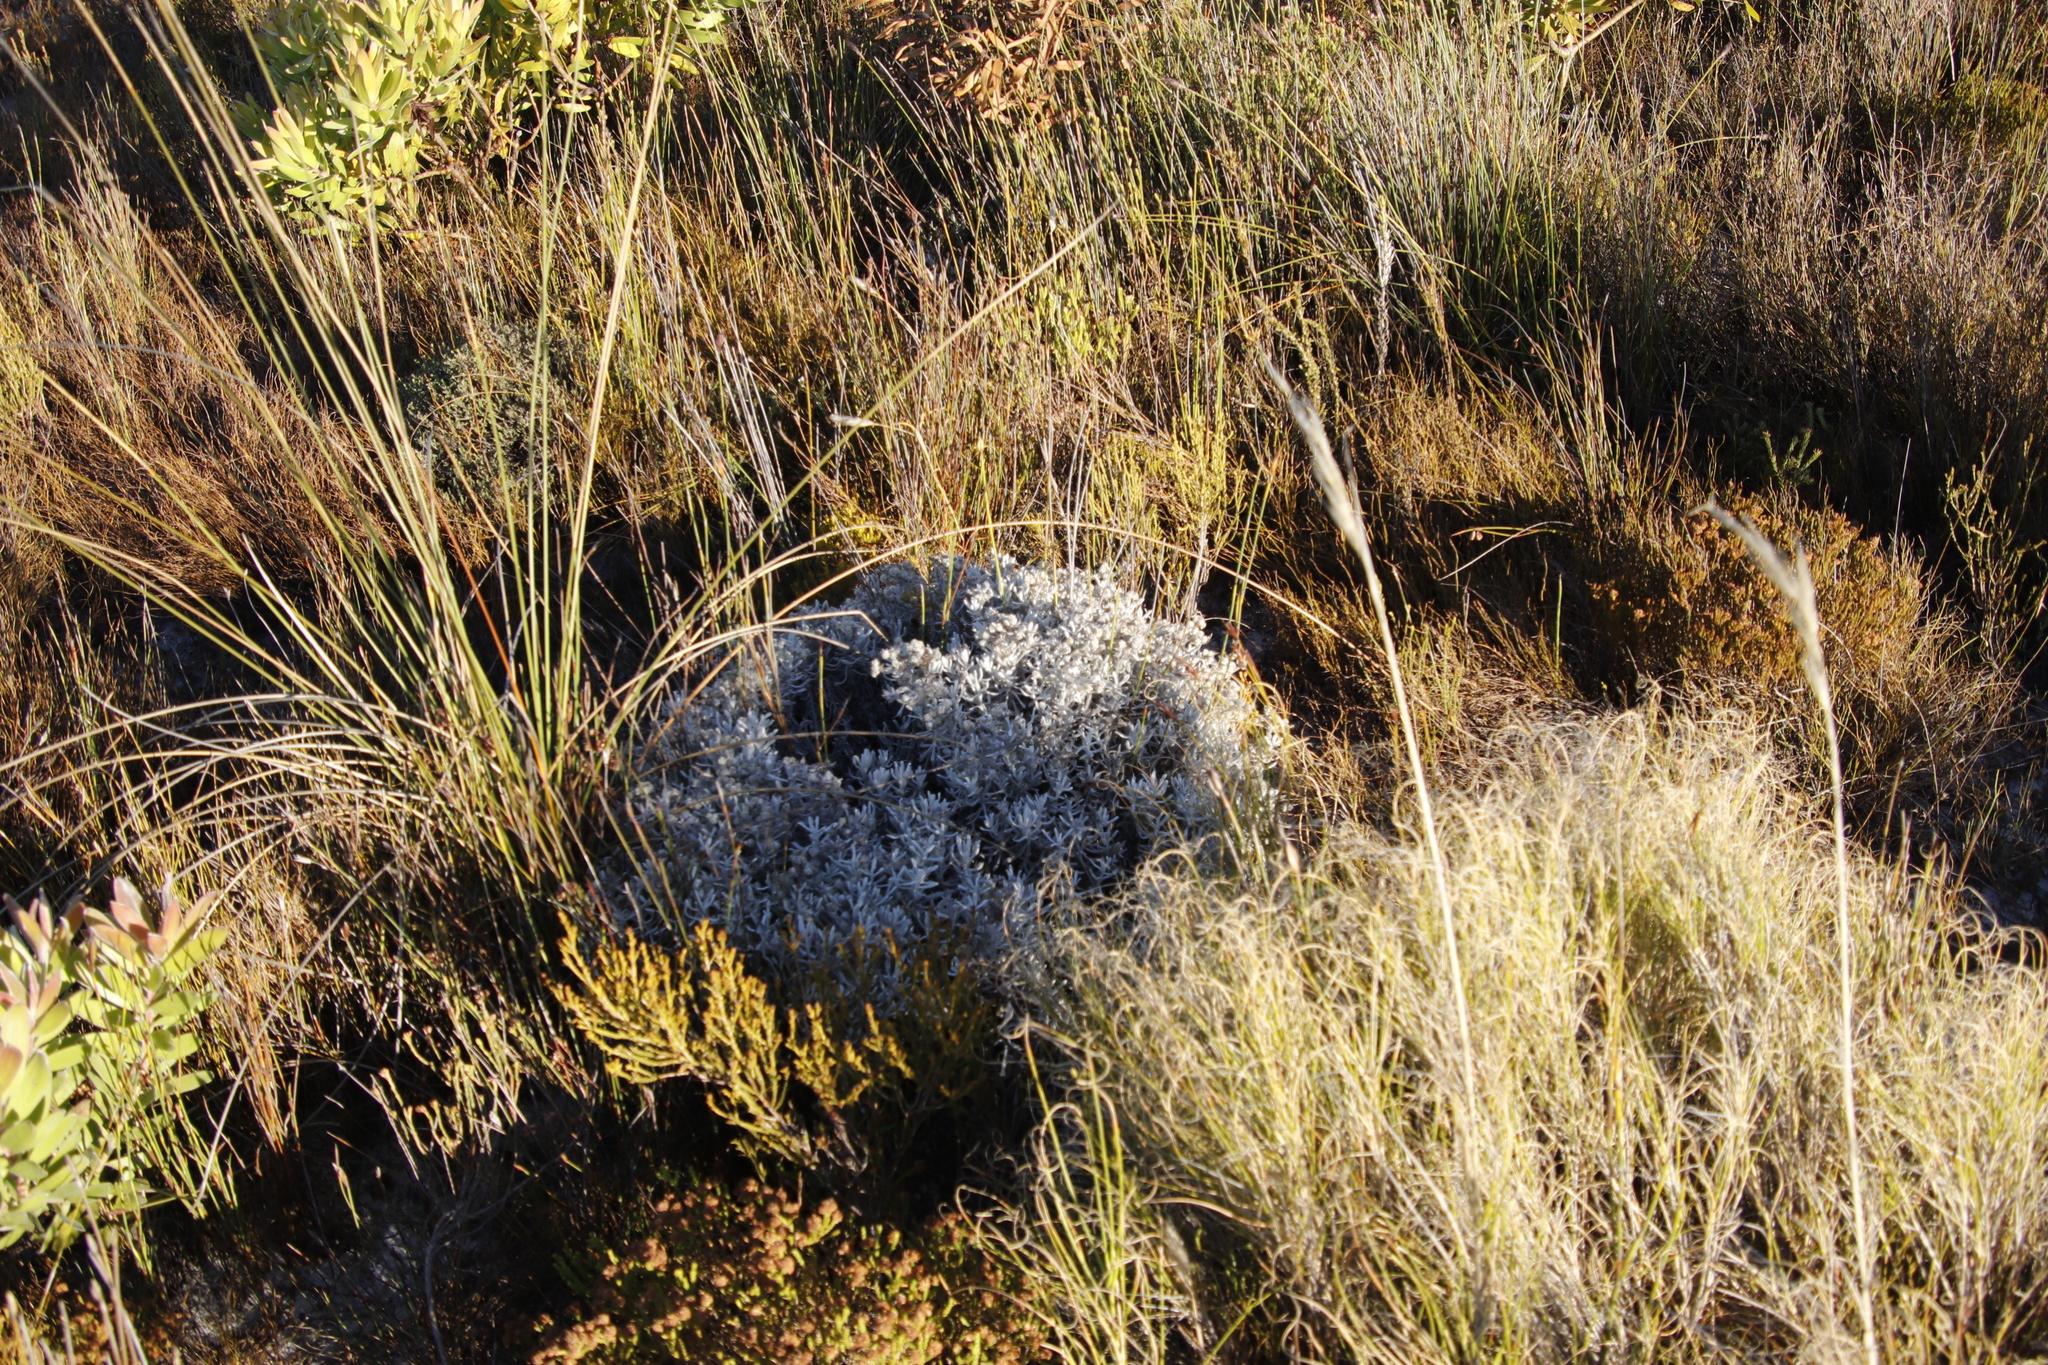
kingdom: Plantae
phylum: Tracheophyta
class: Magnoliopsida
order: Asterales
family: Asteraceae
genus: Petalacte
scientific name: Petalacte coronata
